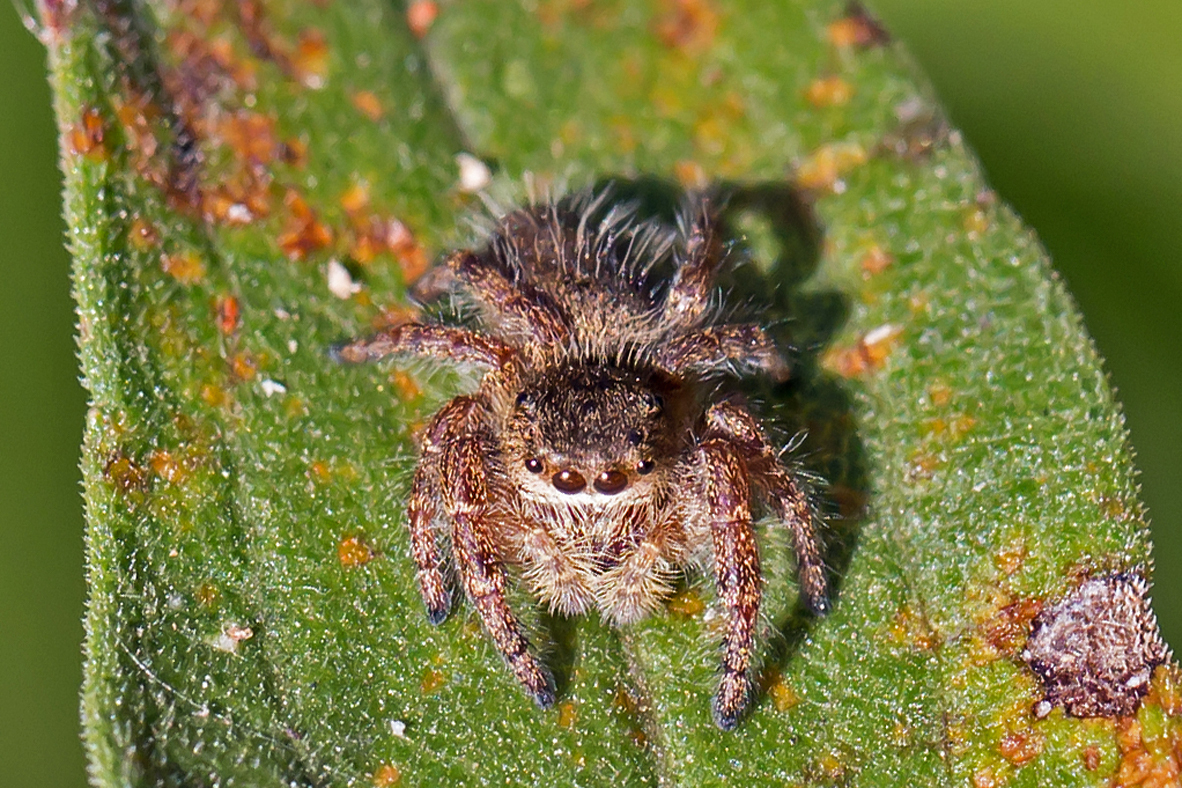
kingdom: Animalia
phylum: Arthropoda
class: Arachnida
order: Araneae
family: Salticidae
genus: Phidippus
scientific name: Phidippus princeps
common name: Grayish jumping spider
